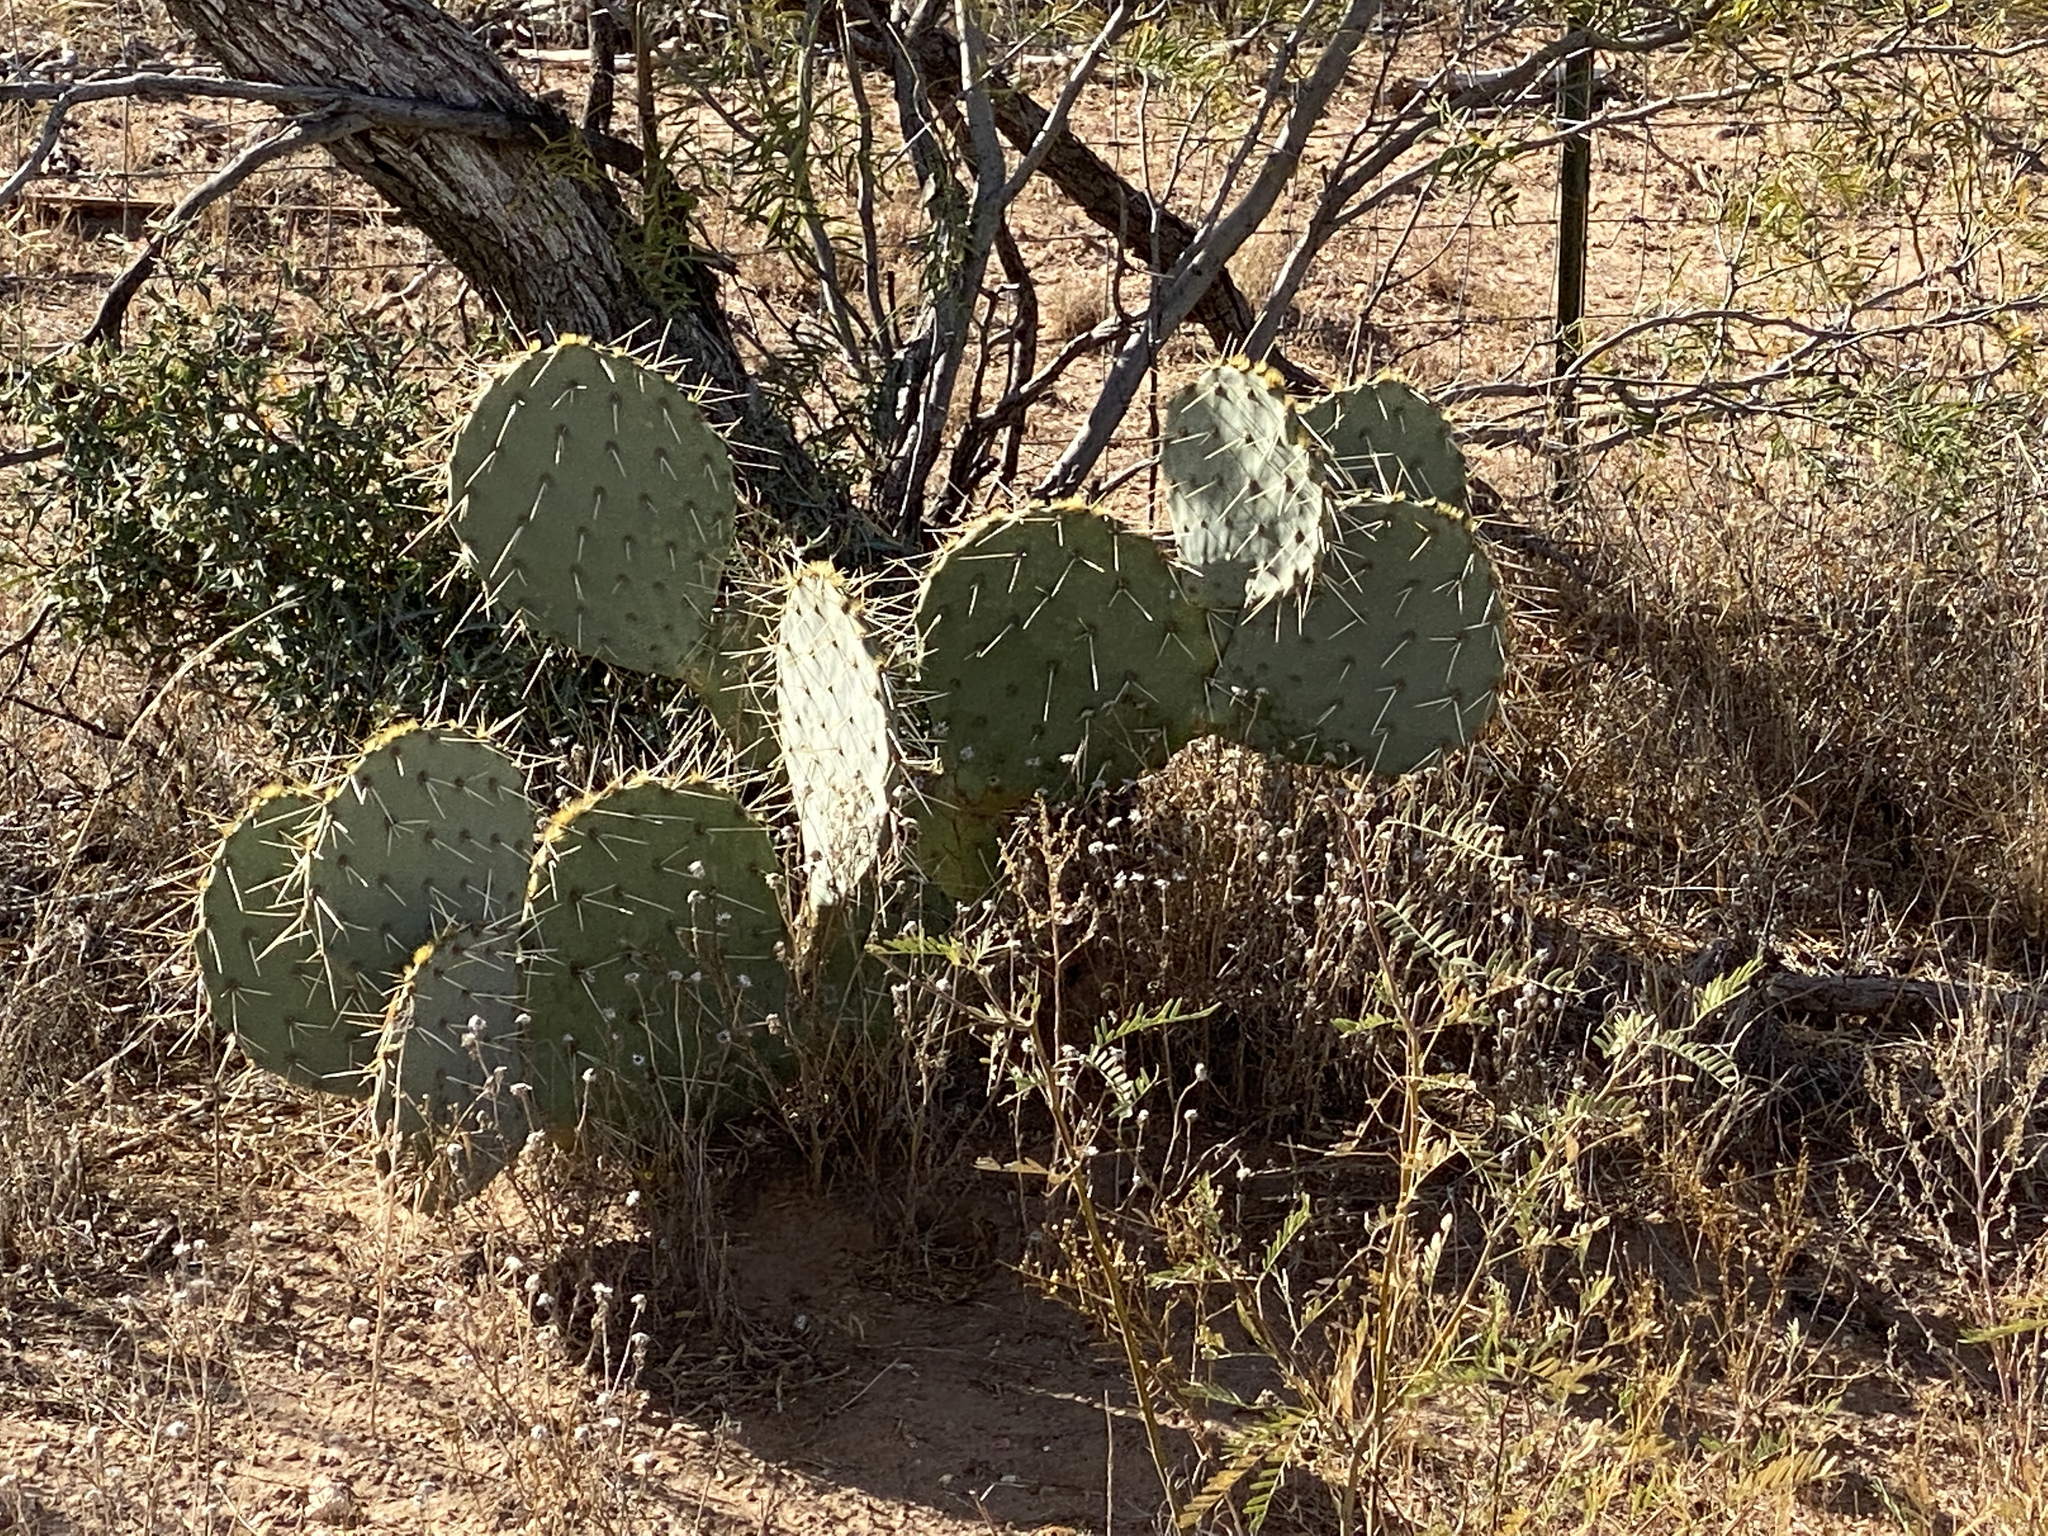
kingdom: Plantae
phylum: Tracheophyta
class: Magnoliopsida
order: Caryophyllales
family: Cactaceae
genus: Opuntia
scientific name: Opuntia engelmannii
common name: Cactus-apple
